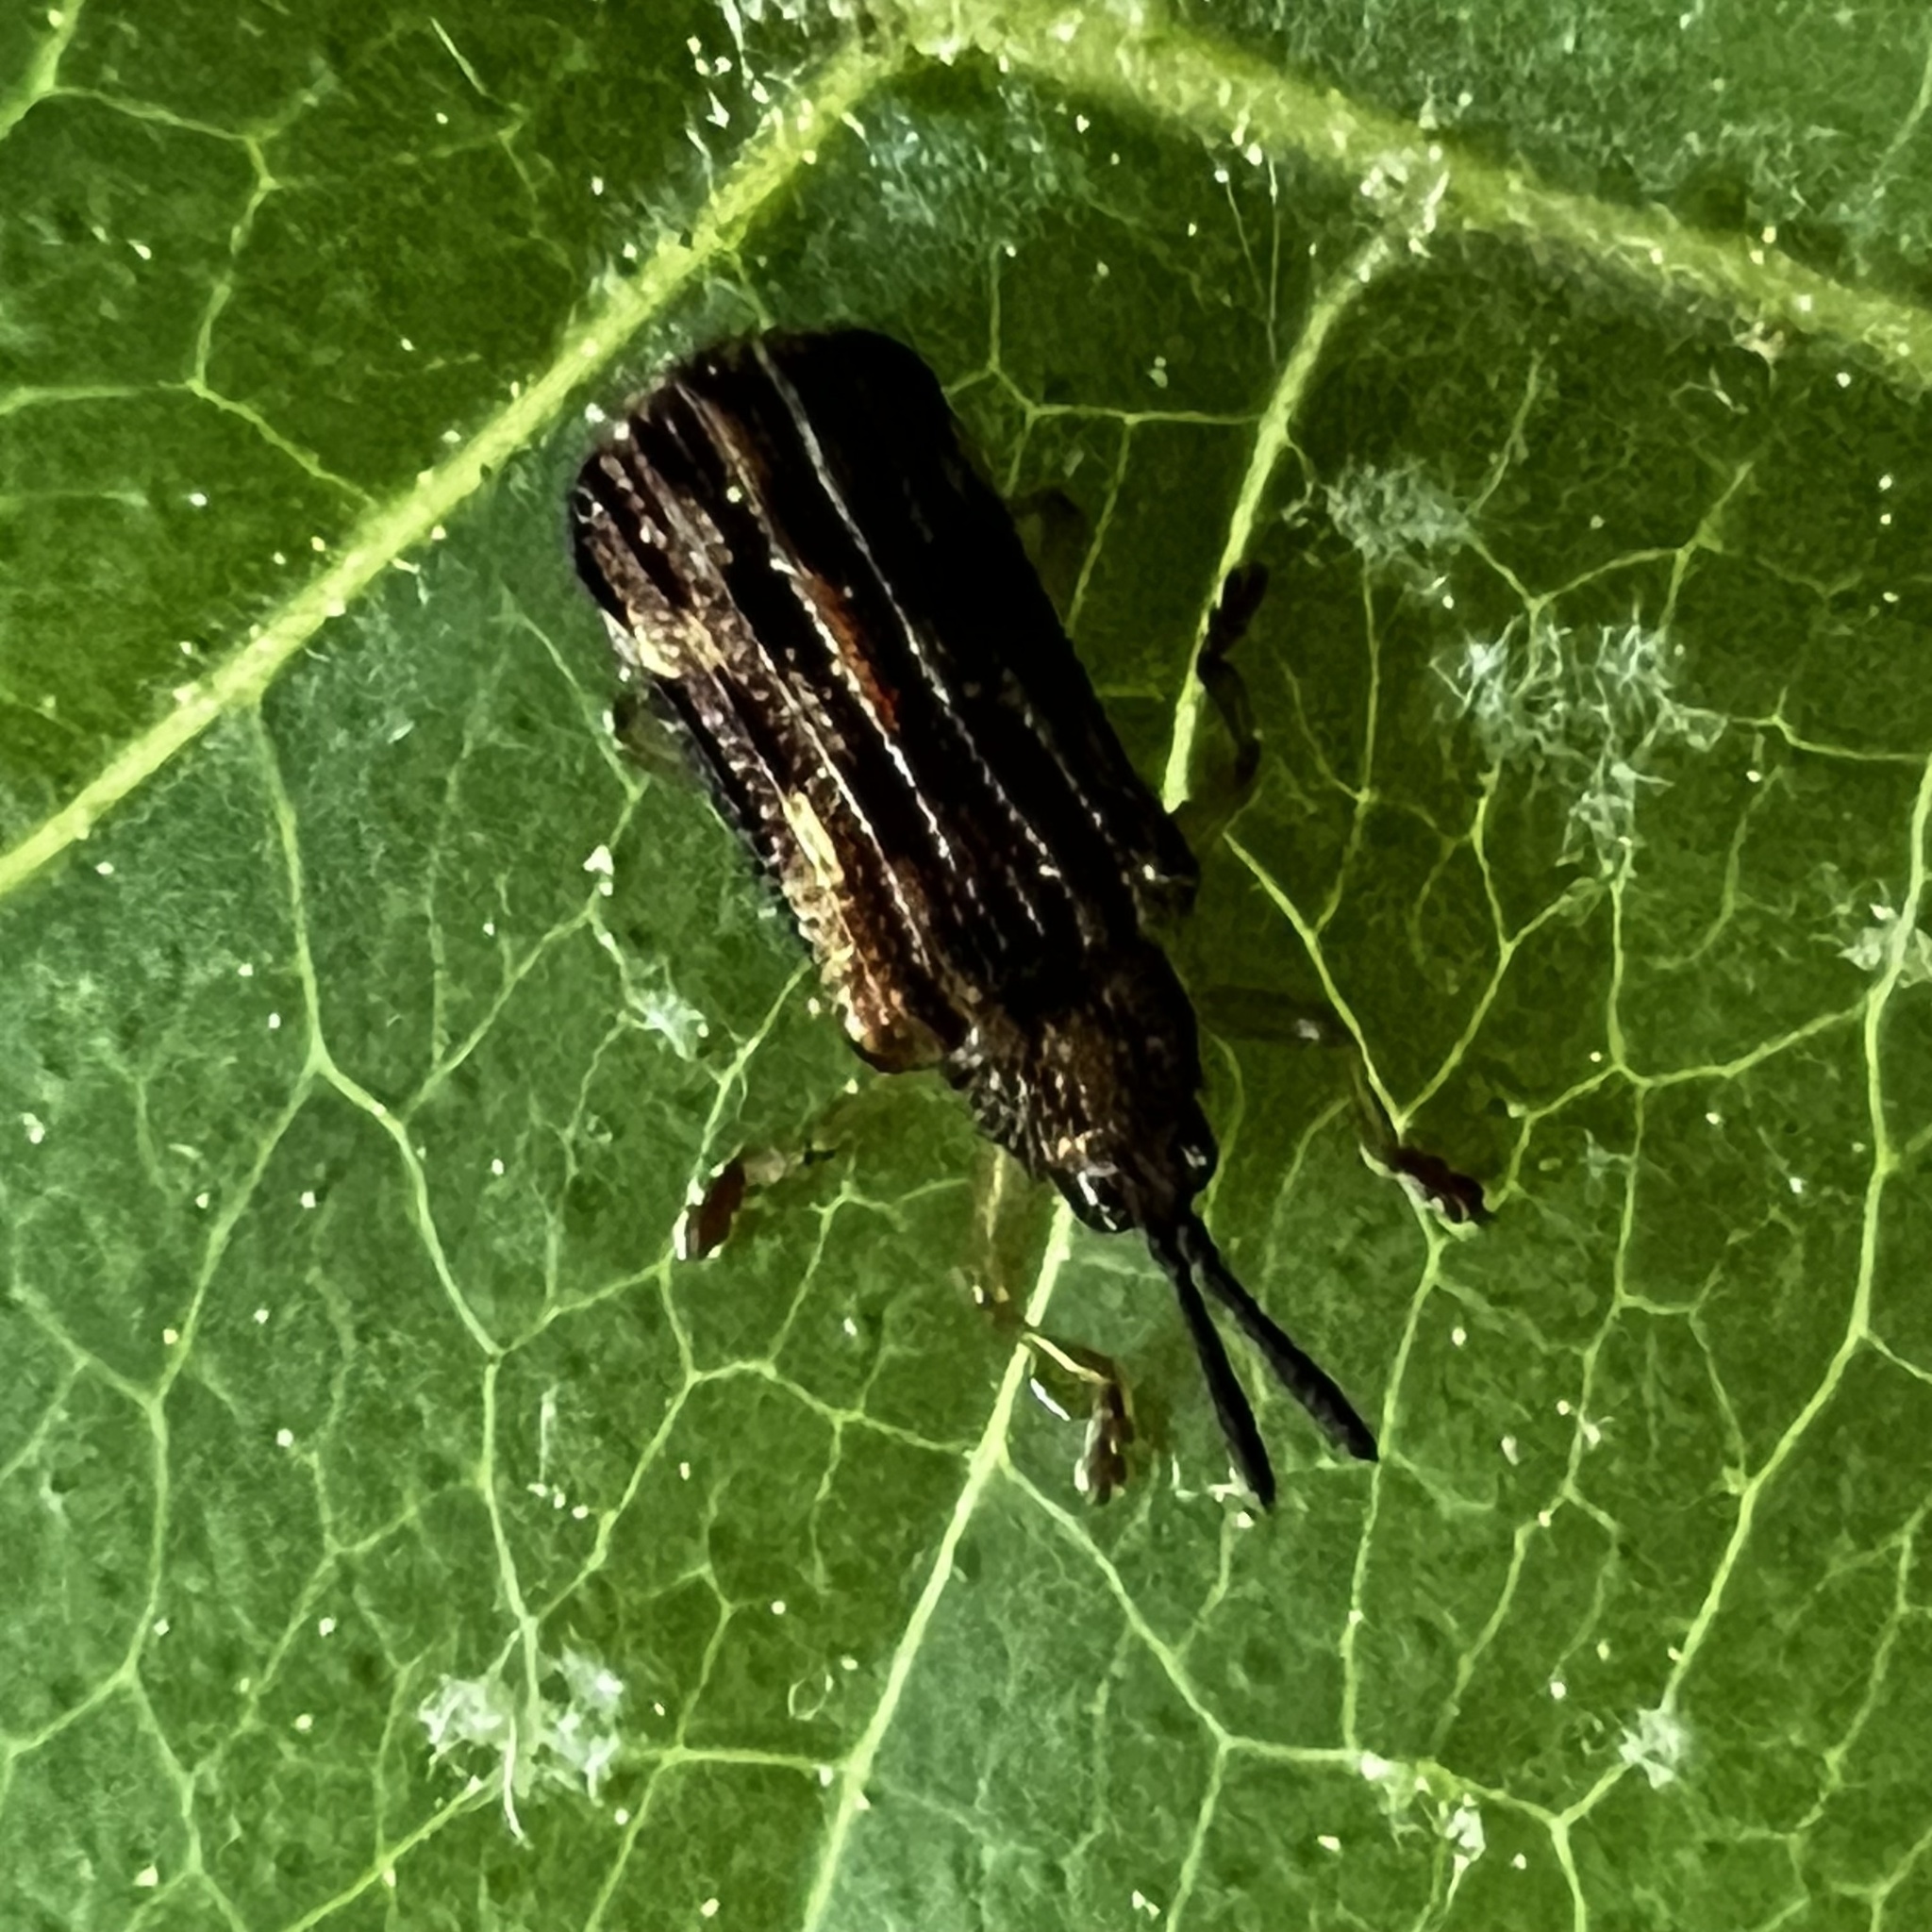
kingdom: Animalia
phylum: Arthropoda
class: Insecta
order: Coleoptera
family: Chrysomelidae
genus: Sumitrosis
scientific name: Sumitrosis inaequalis
